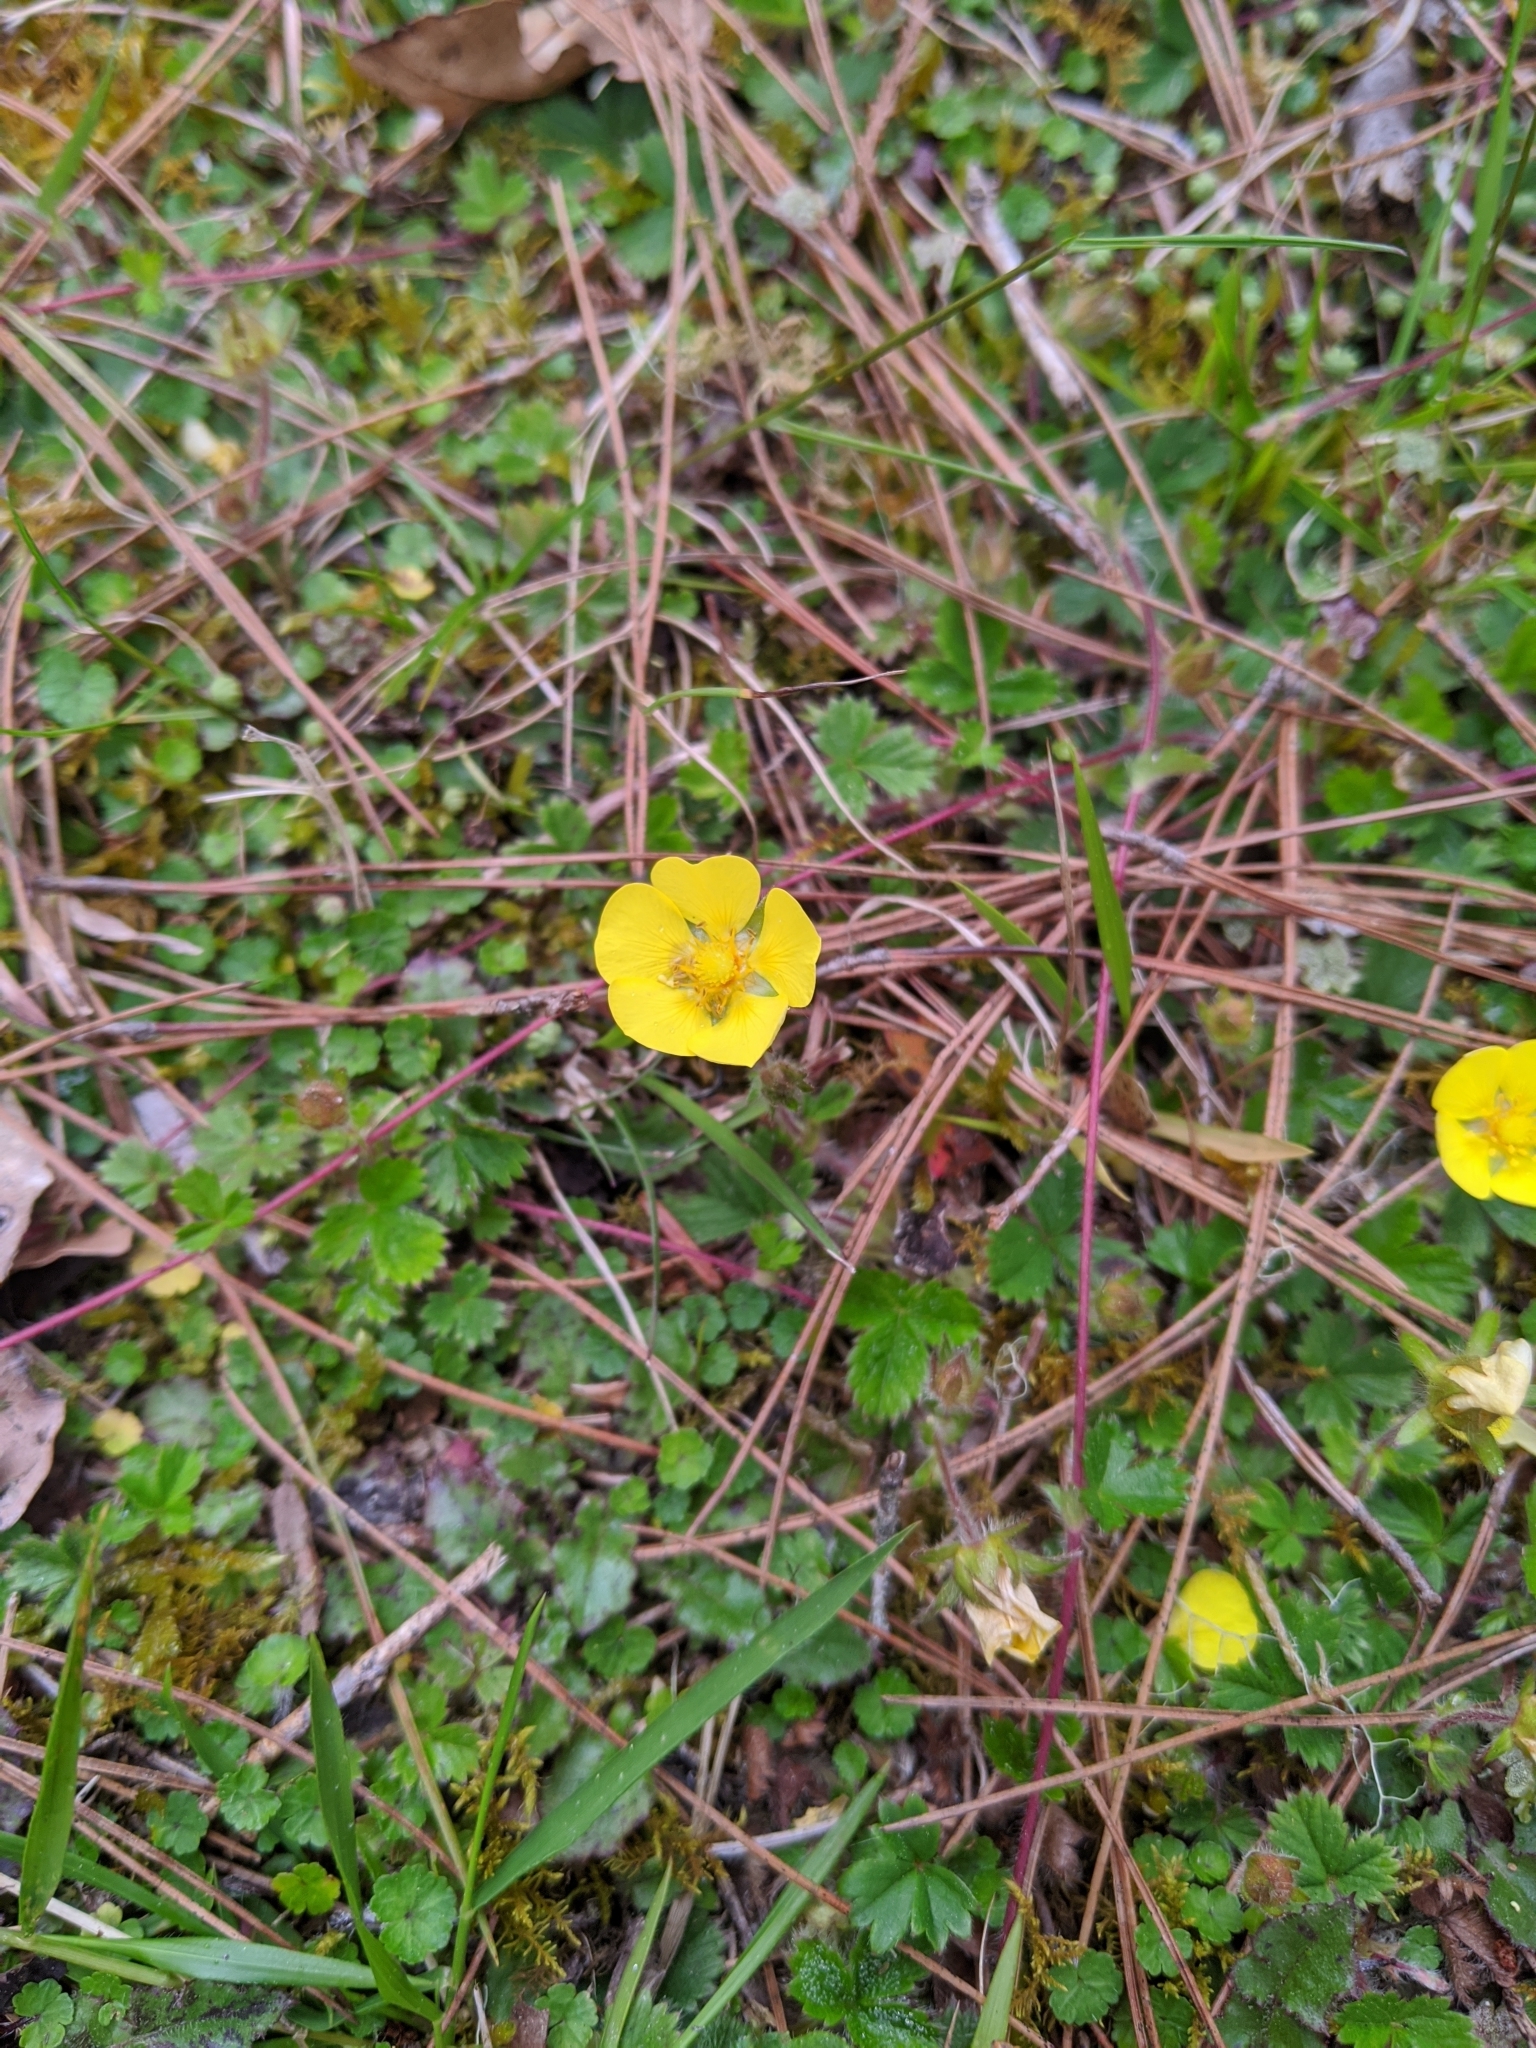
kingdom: Plantae
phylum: Tracheophyta
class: Magnoliopsida
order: Rosales
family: Rosaceae
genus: Potentilla
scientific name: Potentilla matsumurae
